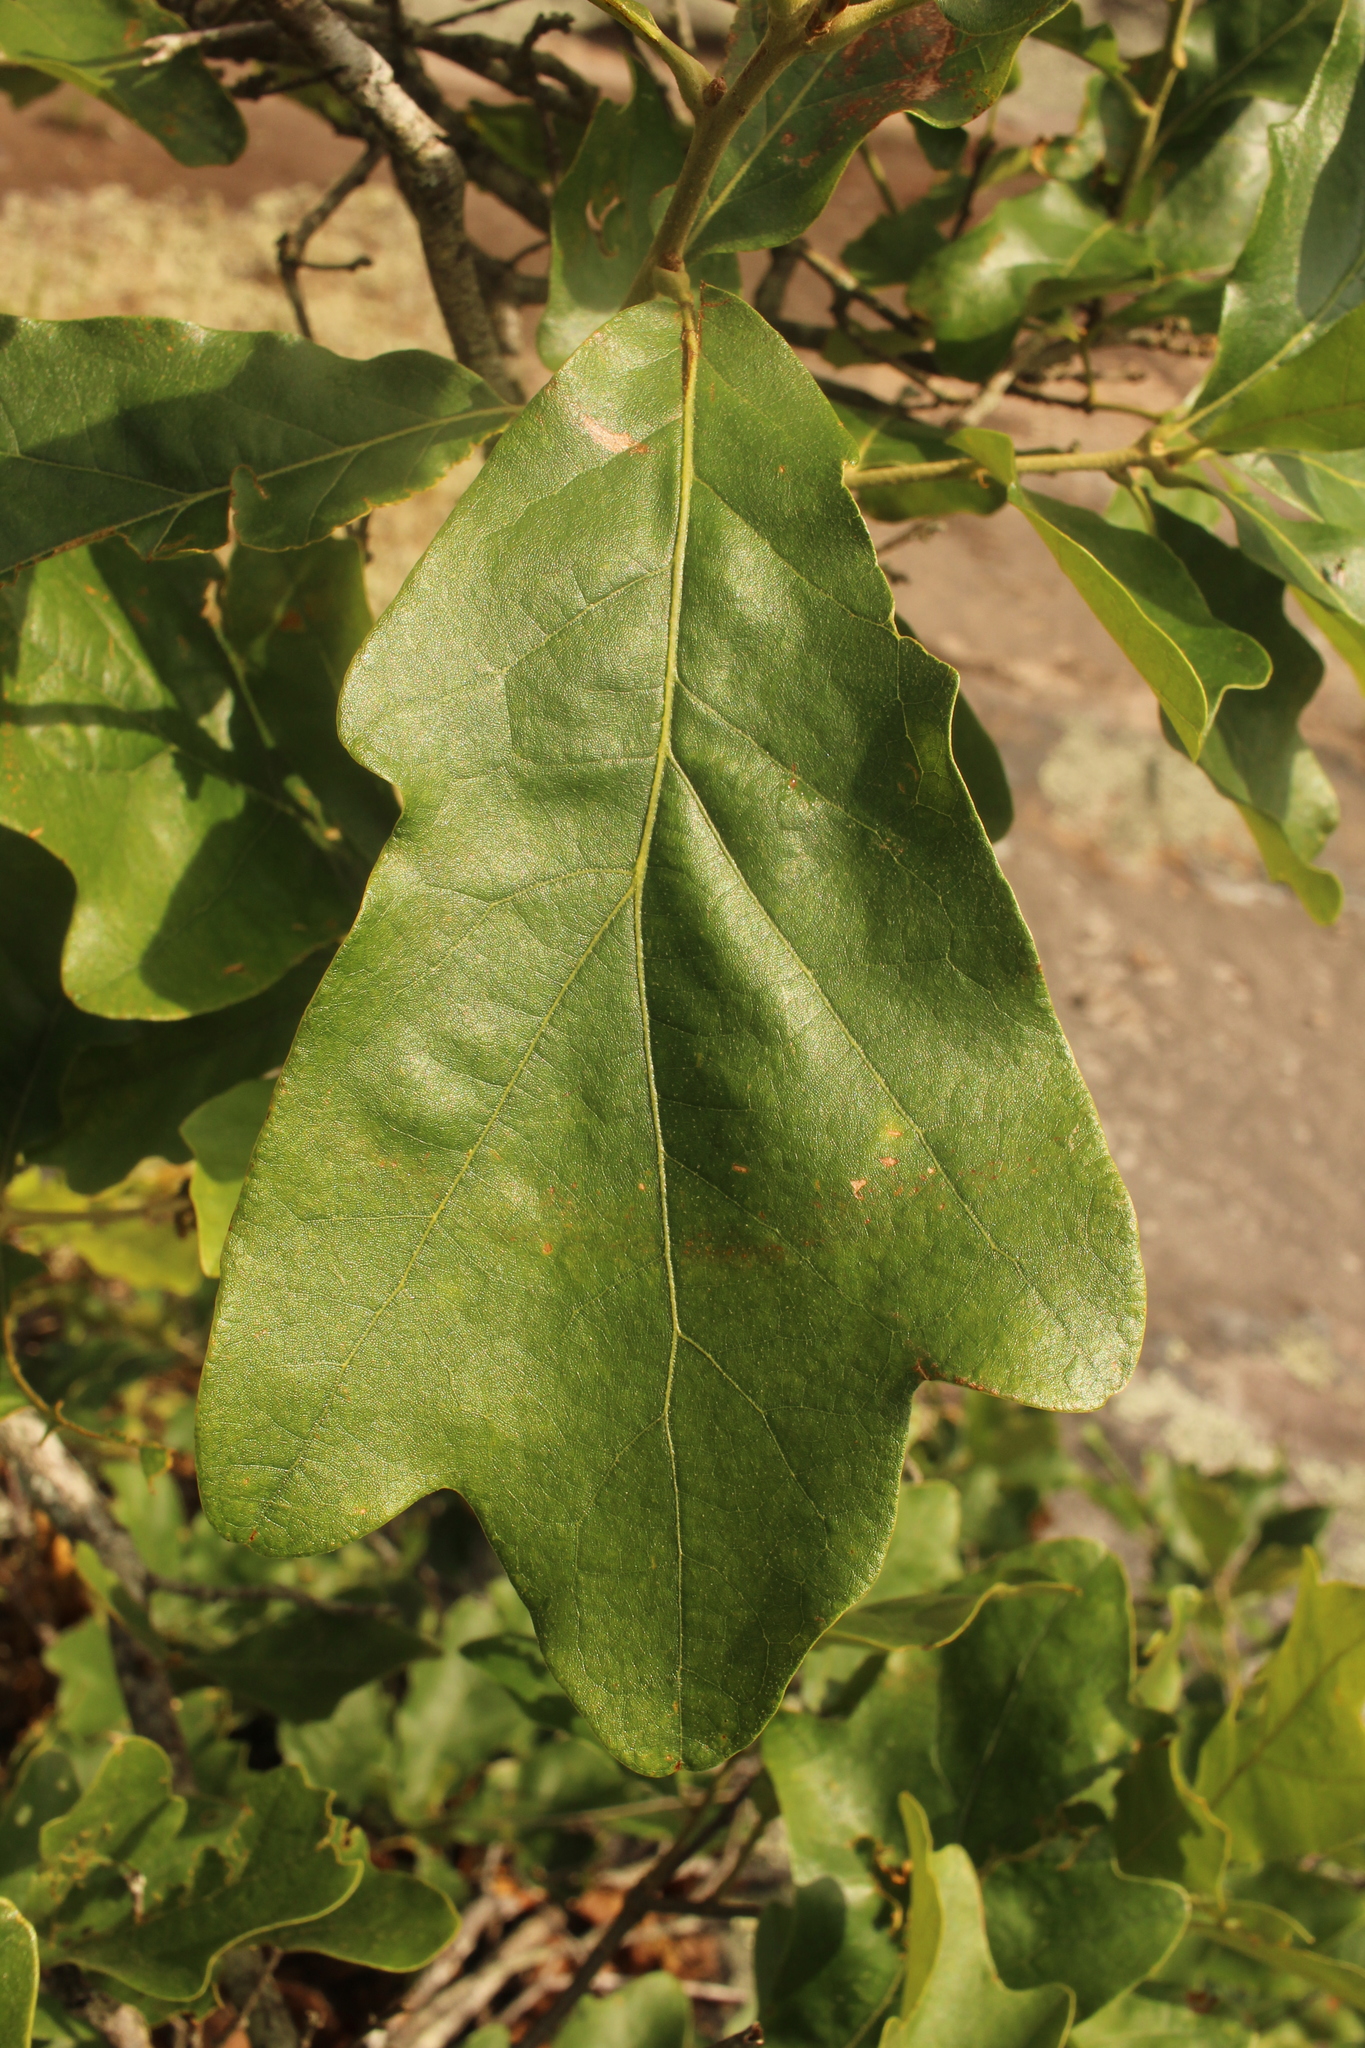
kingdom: Plantae
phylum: Tracheophyta
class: Magnoliopsida
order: Fagales
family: Fagaceae
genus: Quercus
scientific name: Quercus boyntonii
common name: Boynton oak
